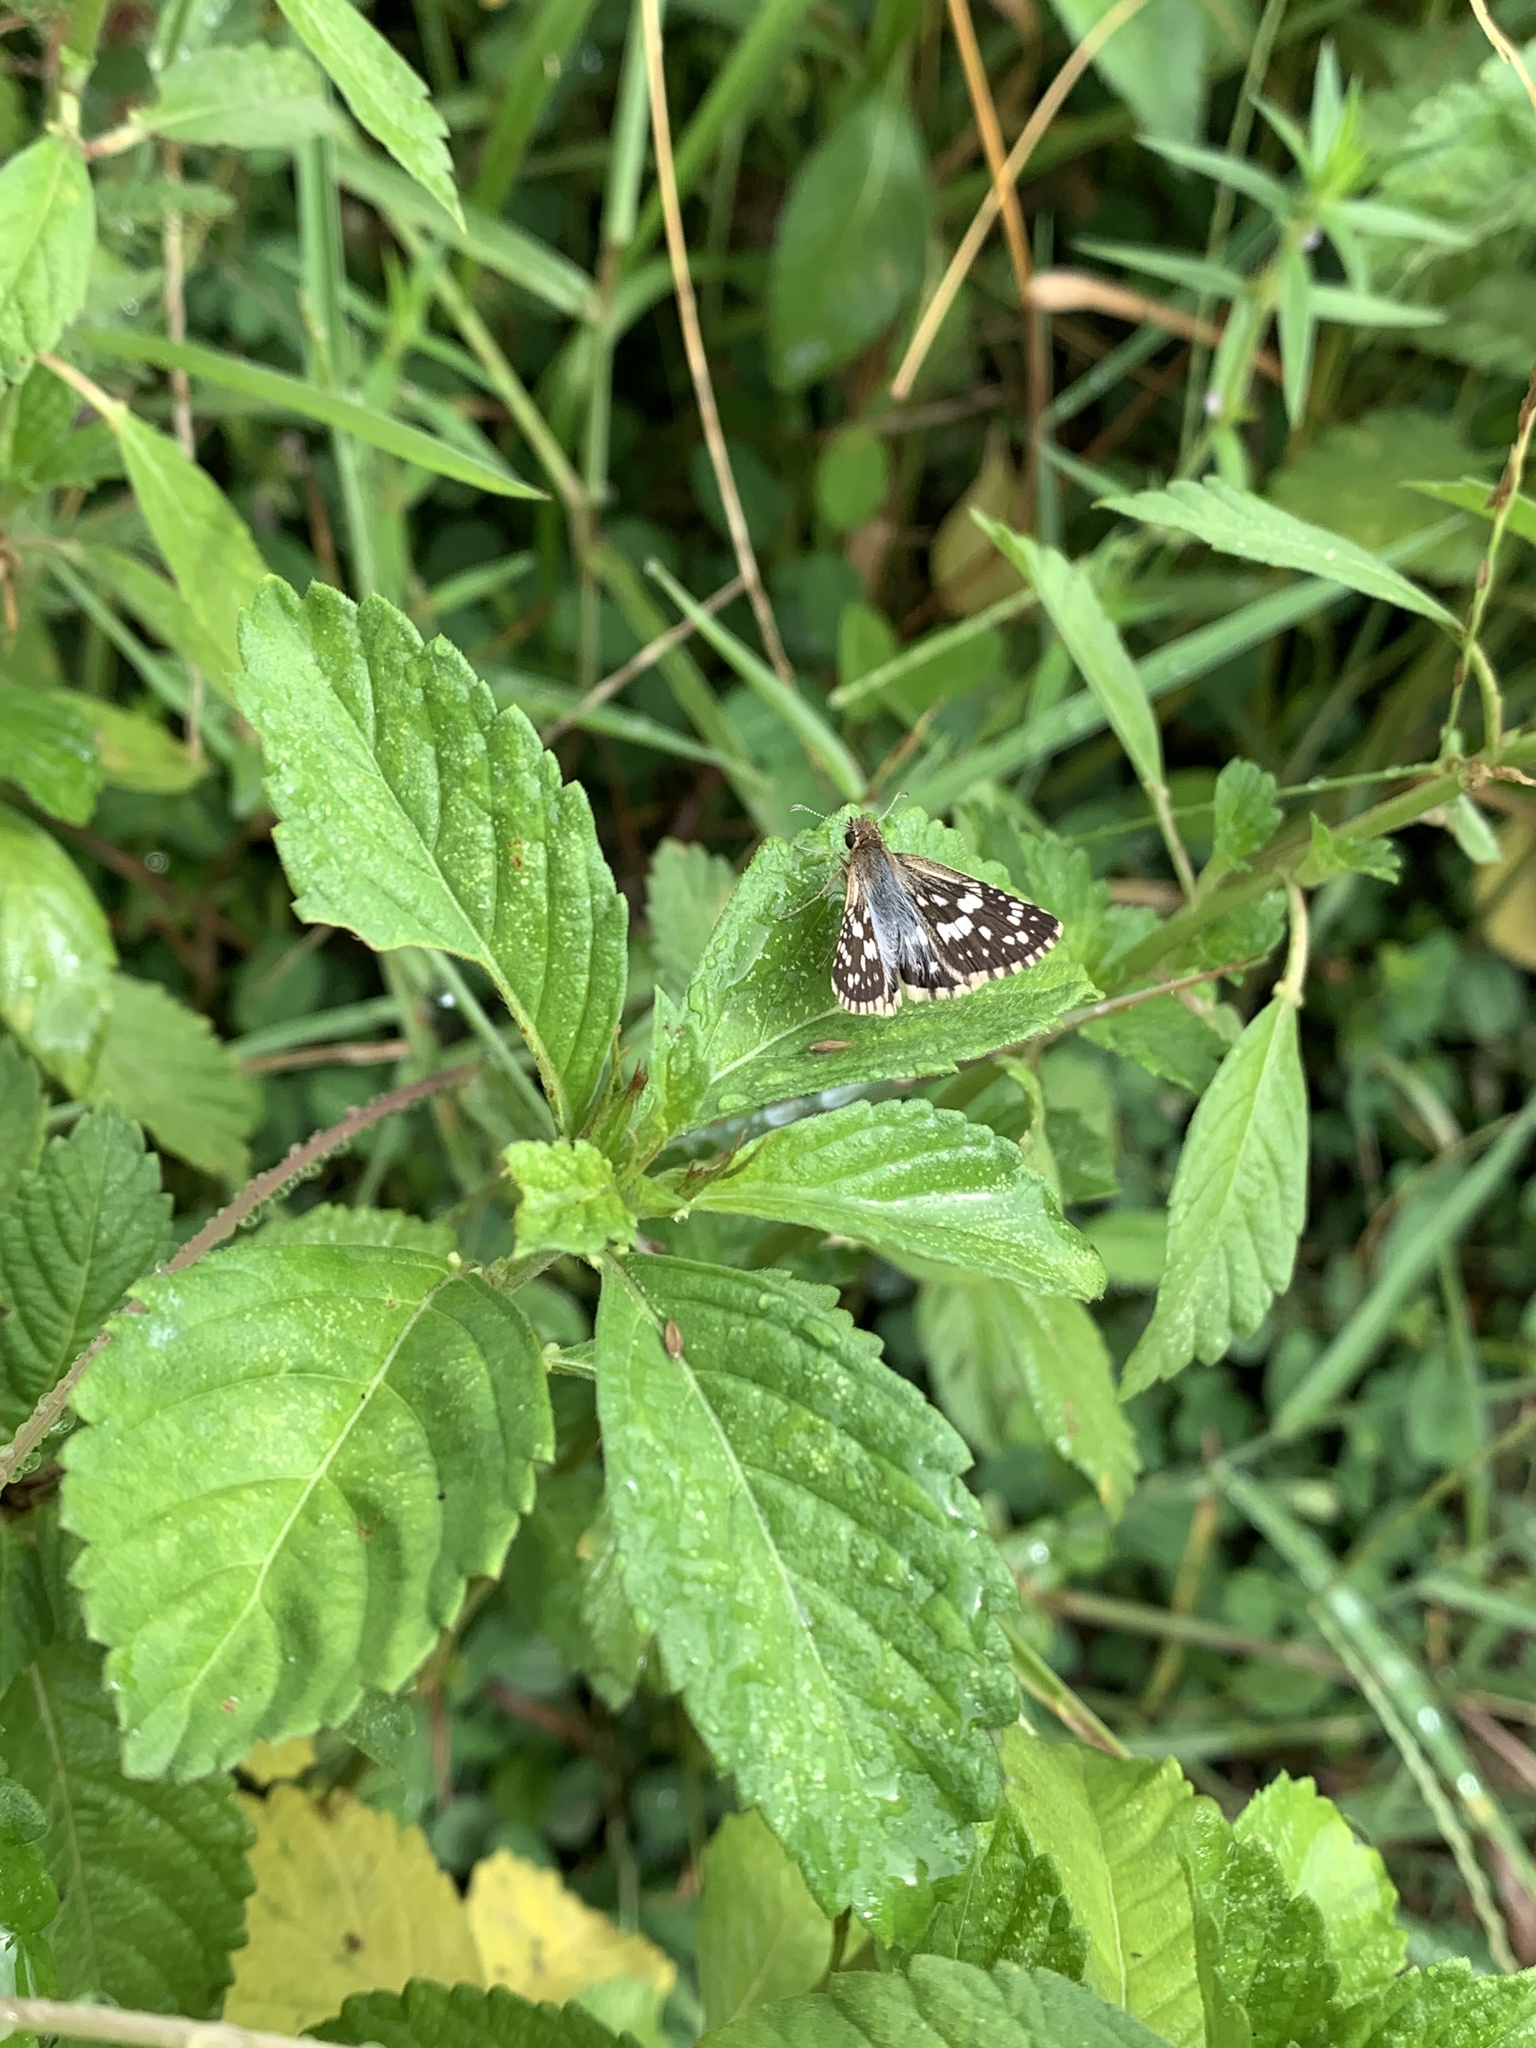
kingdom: Animalia
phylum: Arthropoda
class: Insecta
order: Lepidoptera
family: Hesperiidae
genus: Burnsius
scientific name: Burnsius orcynoides
